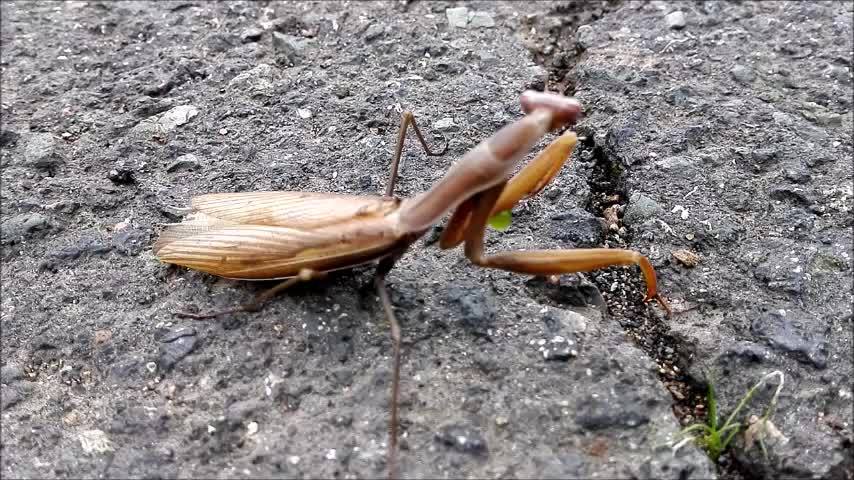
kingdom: Animalia
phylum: Arthropoda
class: Insecta
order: Mantodea
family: Mantidae
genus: Mantis
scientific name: Mantis religiosa
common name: Praying mantis
